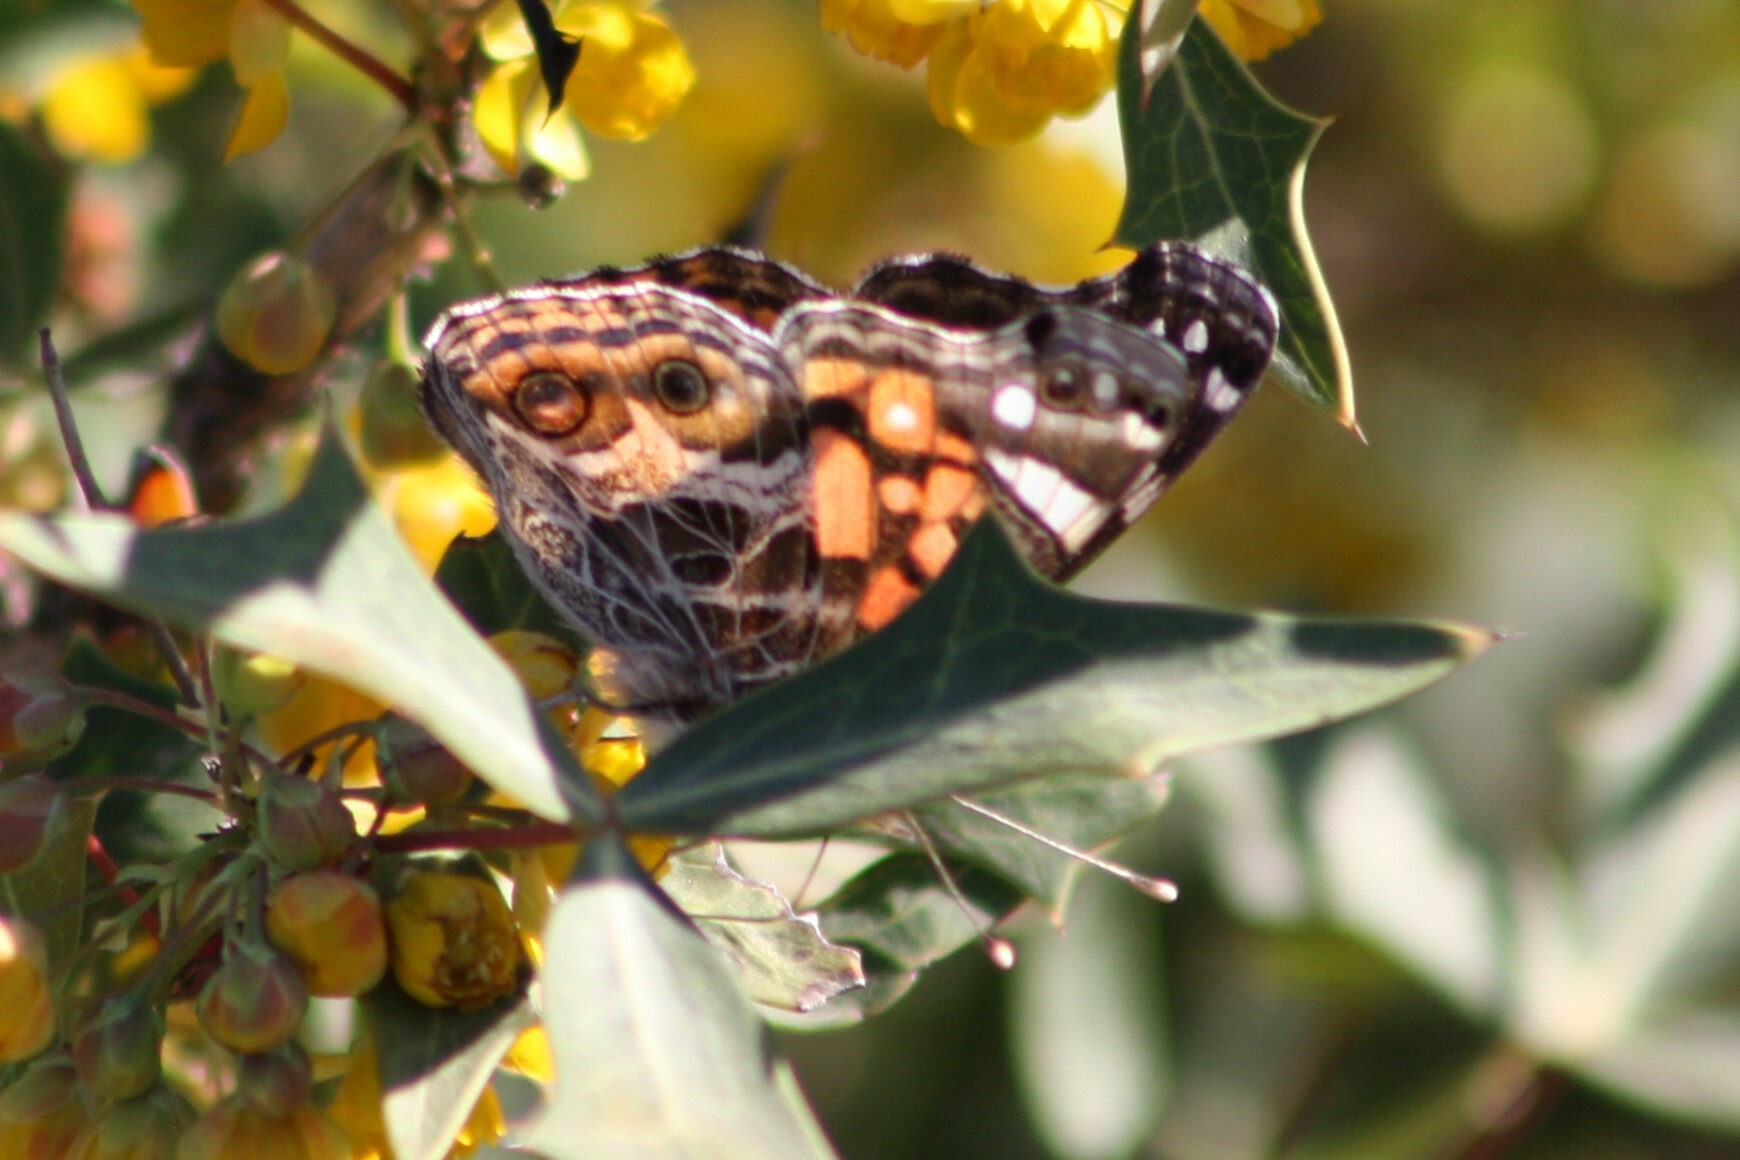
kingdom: Animalia
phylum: Arthropoda
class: Insecta
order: Lepidoptera
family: Nymphalidae
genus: Vanessa
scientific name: Vanessa virginiensis
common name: American lady
